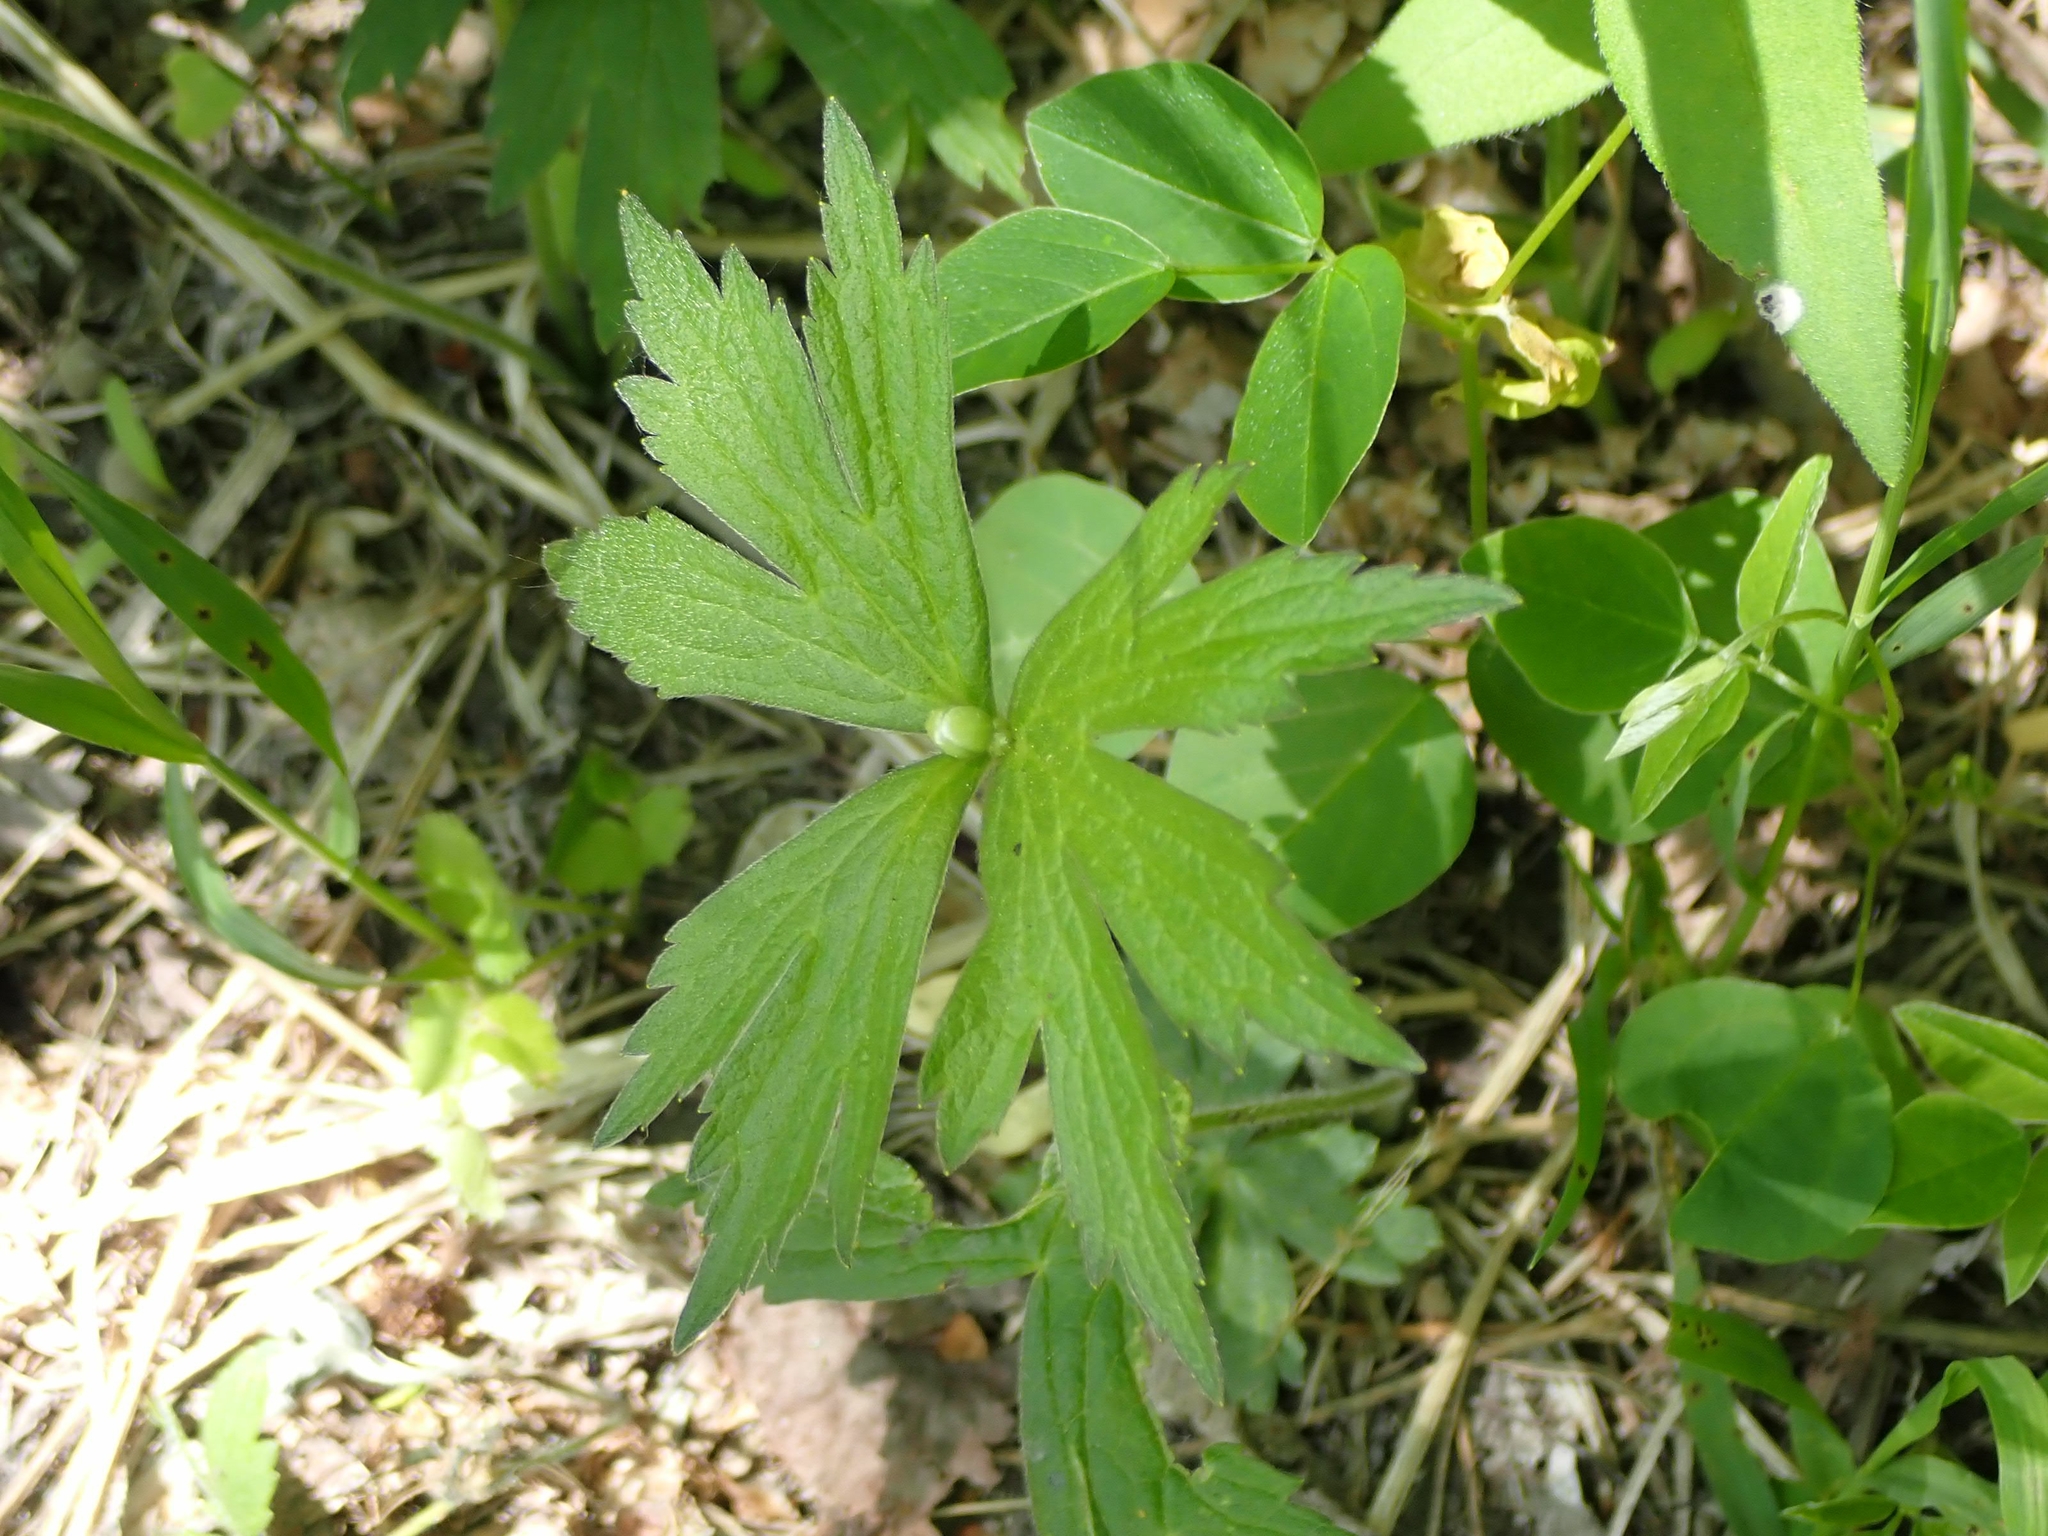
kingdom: Plantae
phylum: Tracheophyta
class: Magnoliopsida
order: Ranunculales
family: Ranunculaceae
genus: Anemonastrum
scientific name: Anemonastrum canadense
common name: Canada anemone
